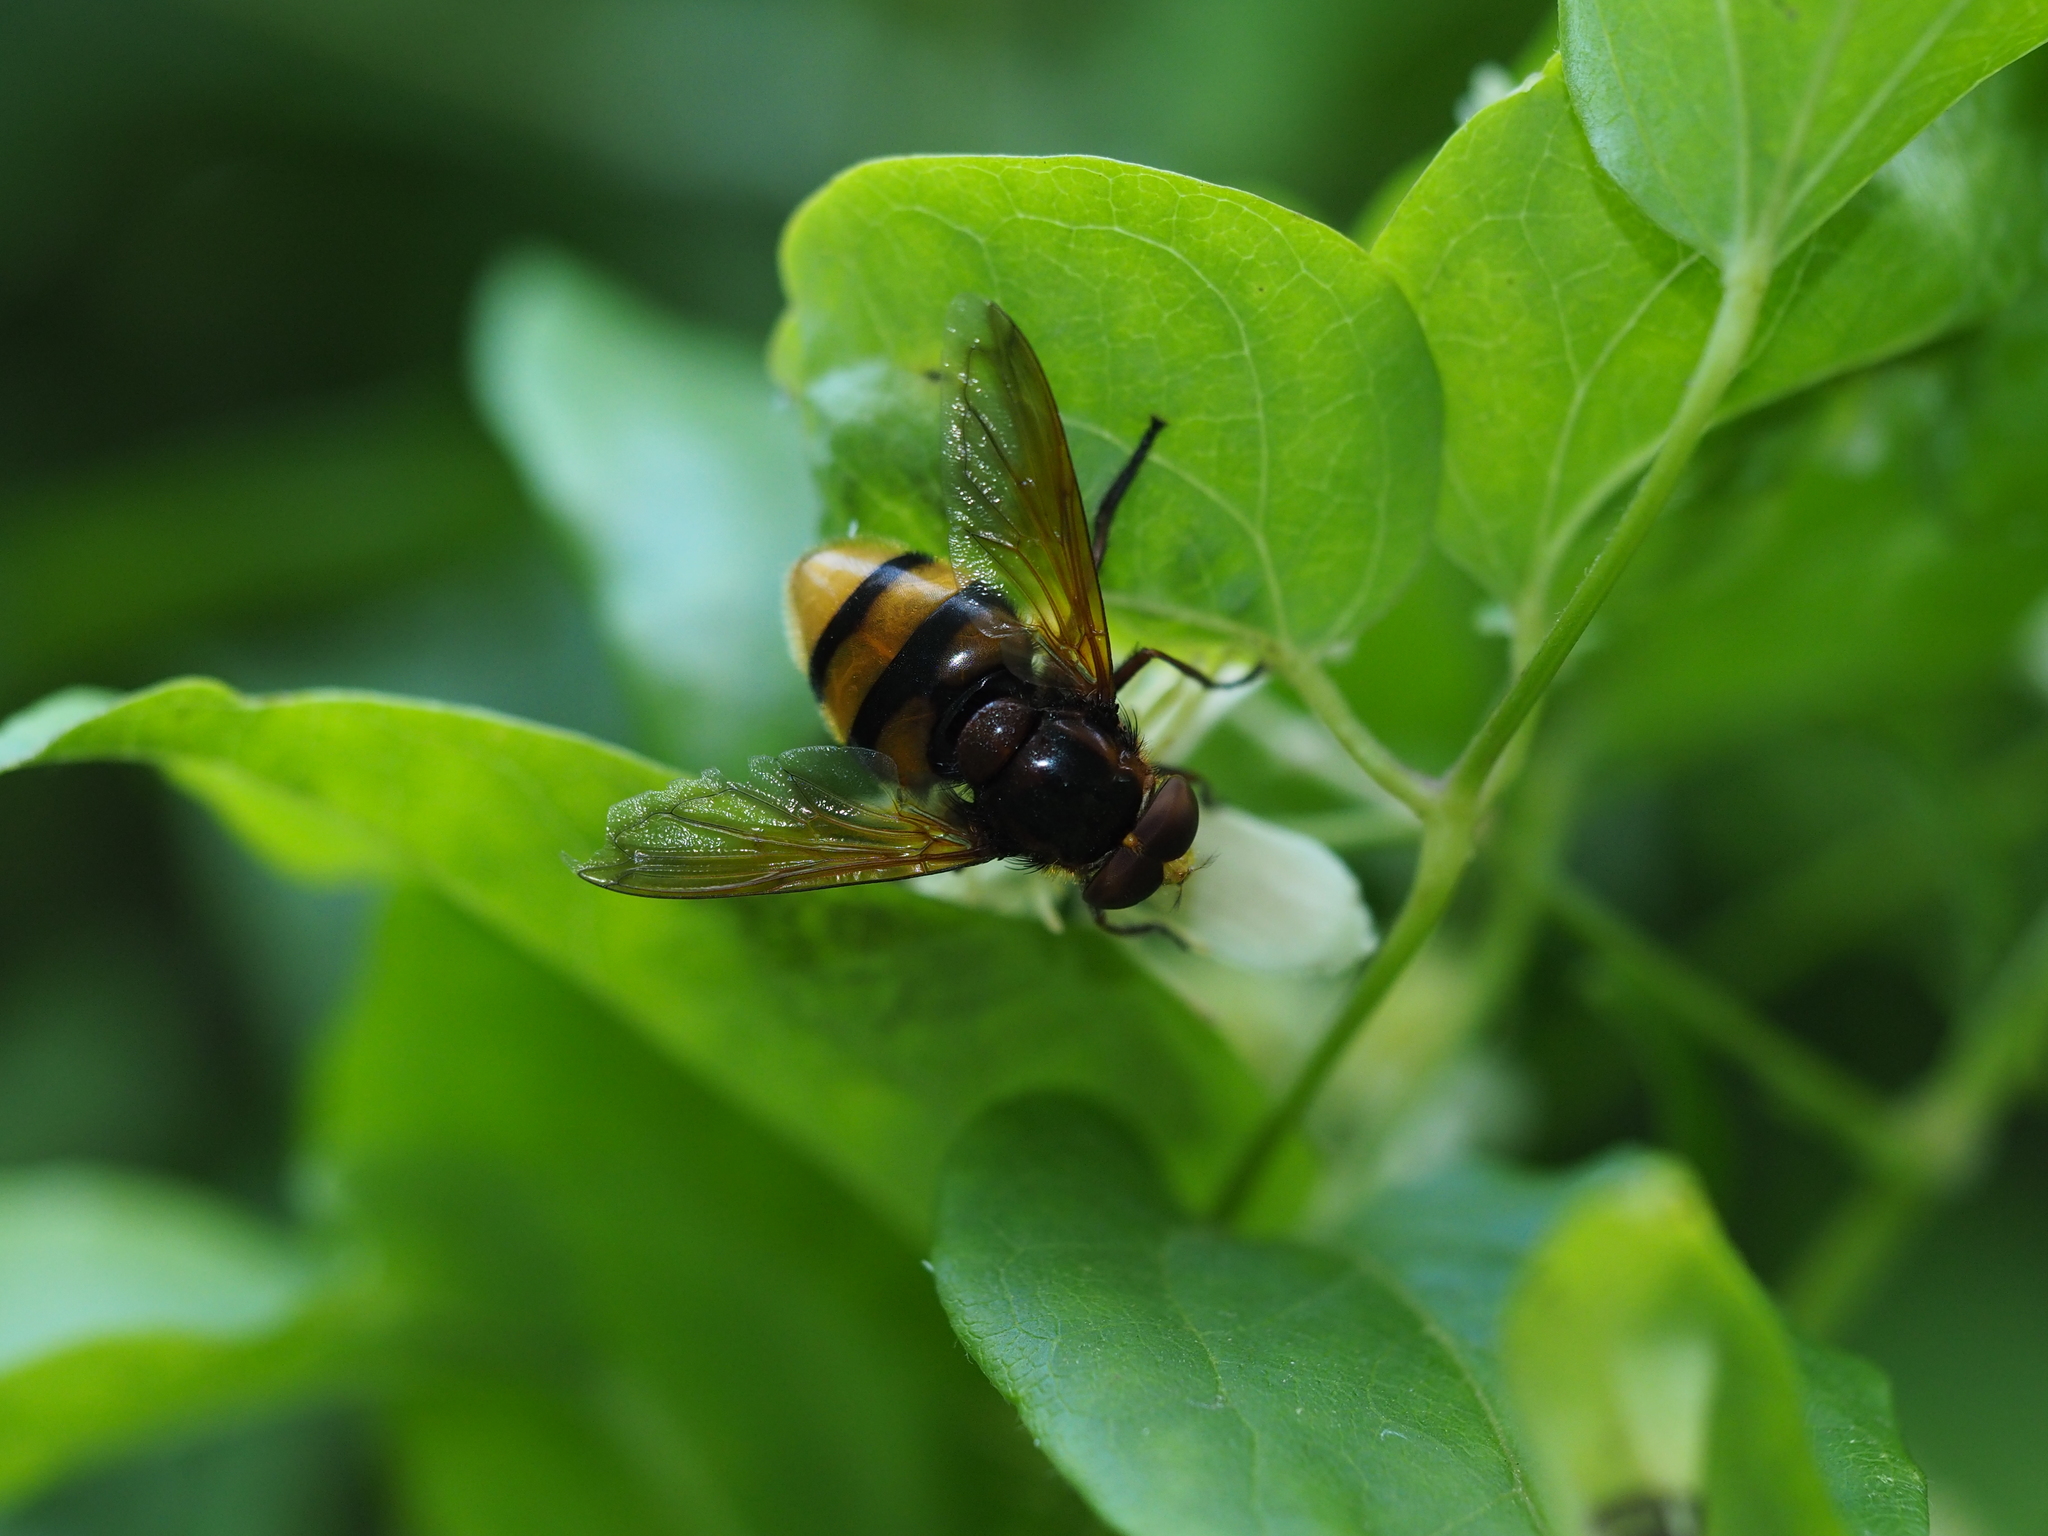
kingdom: Animalia
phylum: Arthropoda
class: Insecta
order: Diptera
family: Syrphidae
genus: Volucella
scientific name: Volucella zonaria
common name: Hornet hoverfly
